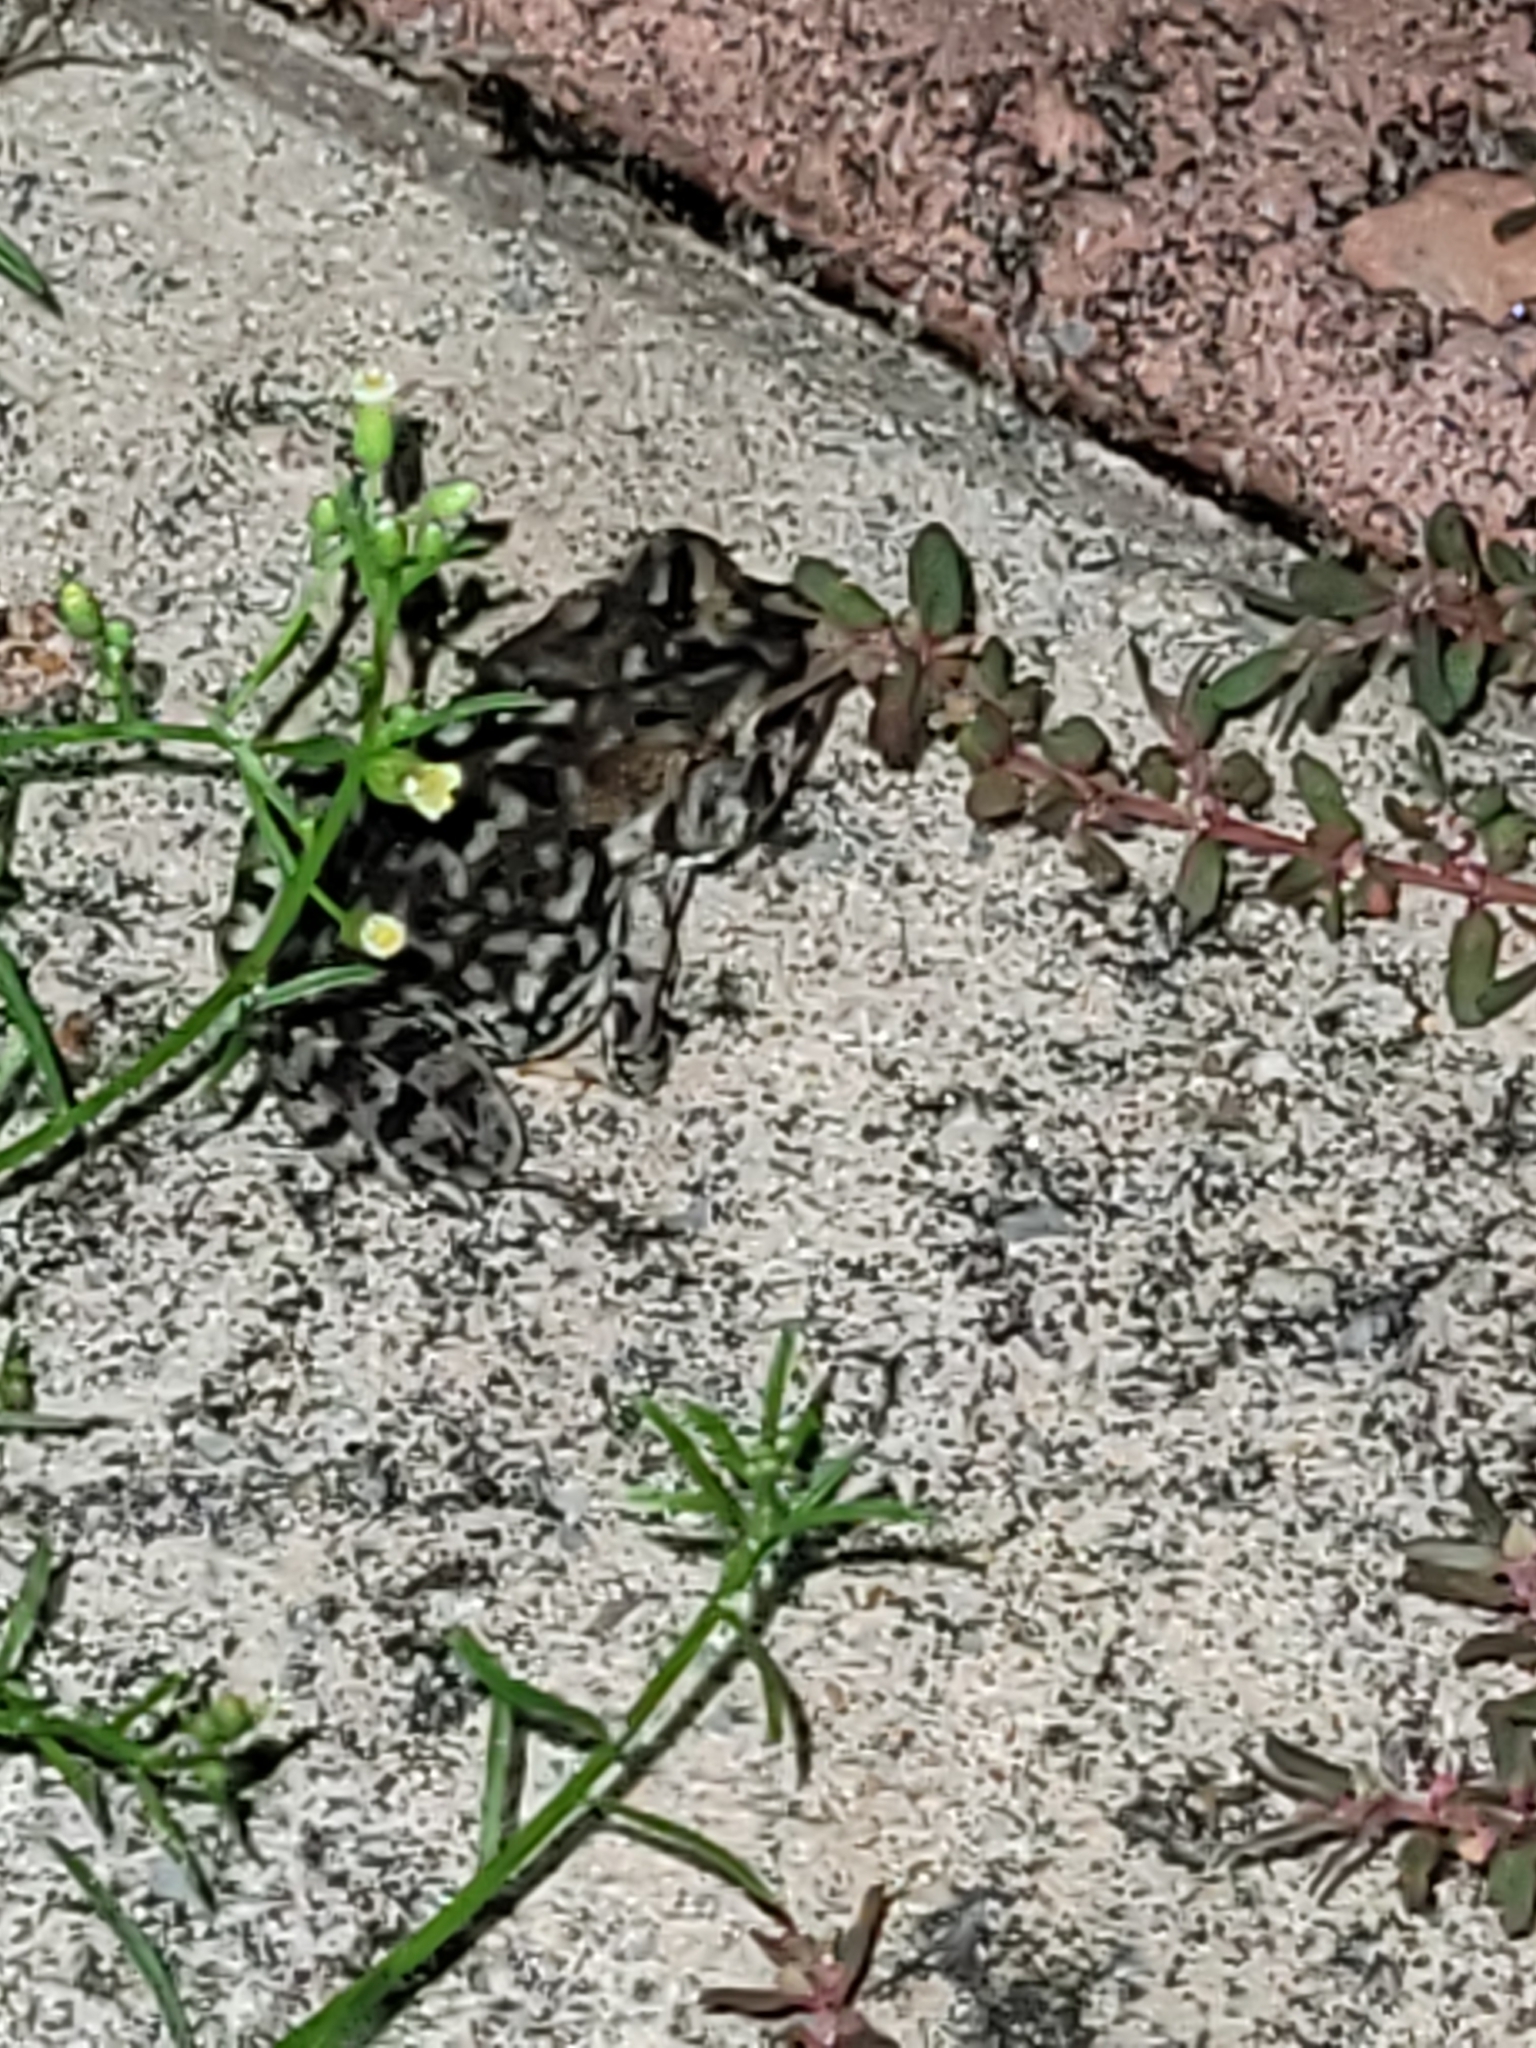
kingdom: Animalia
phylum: Chordata
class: Amphibia
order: Anura
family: Bufonidae
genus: Anaxyrus
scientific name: Anaxyrus terrestris
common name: Southern toad
